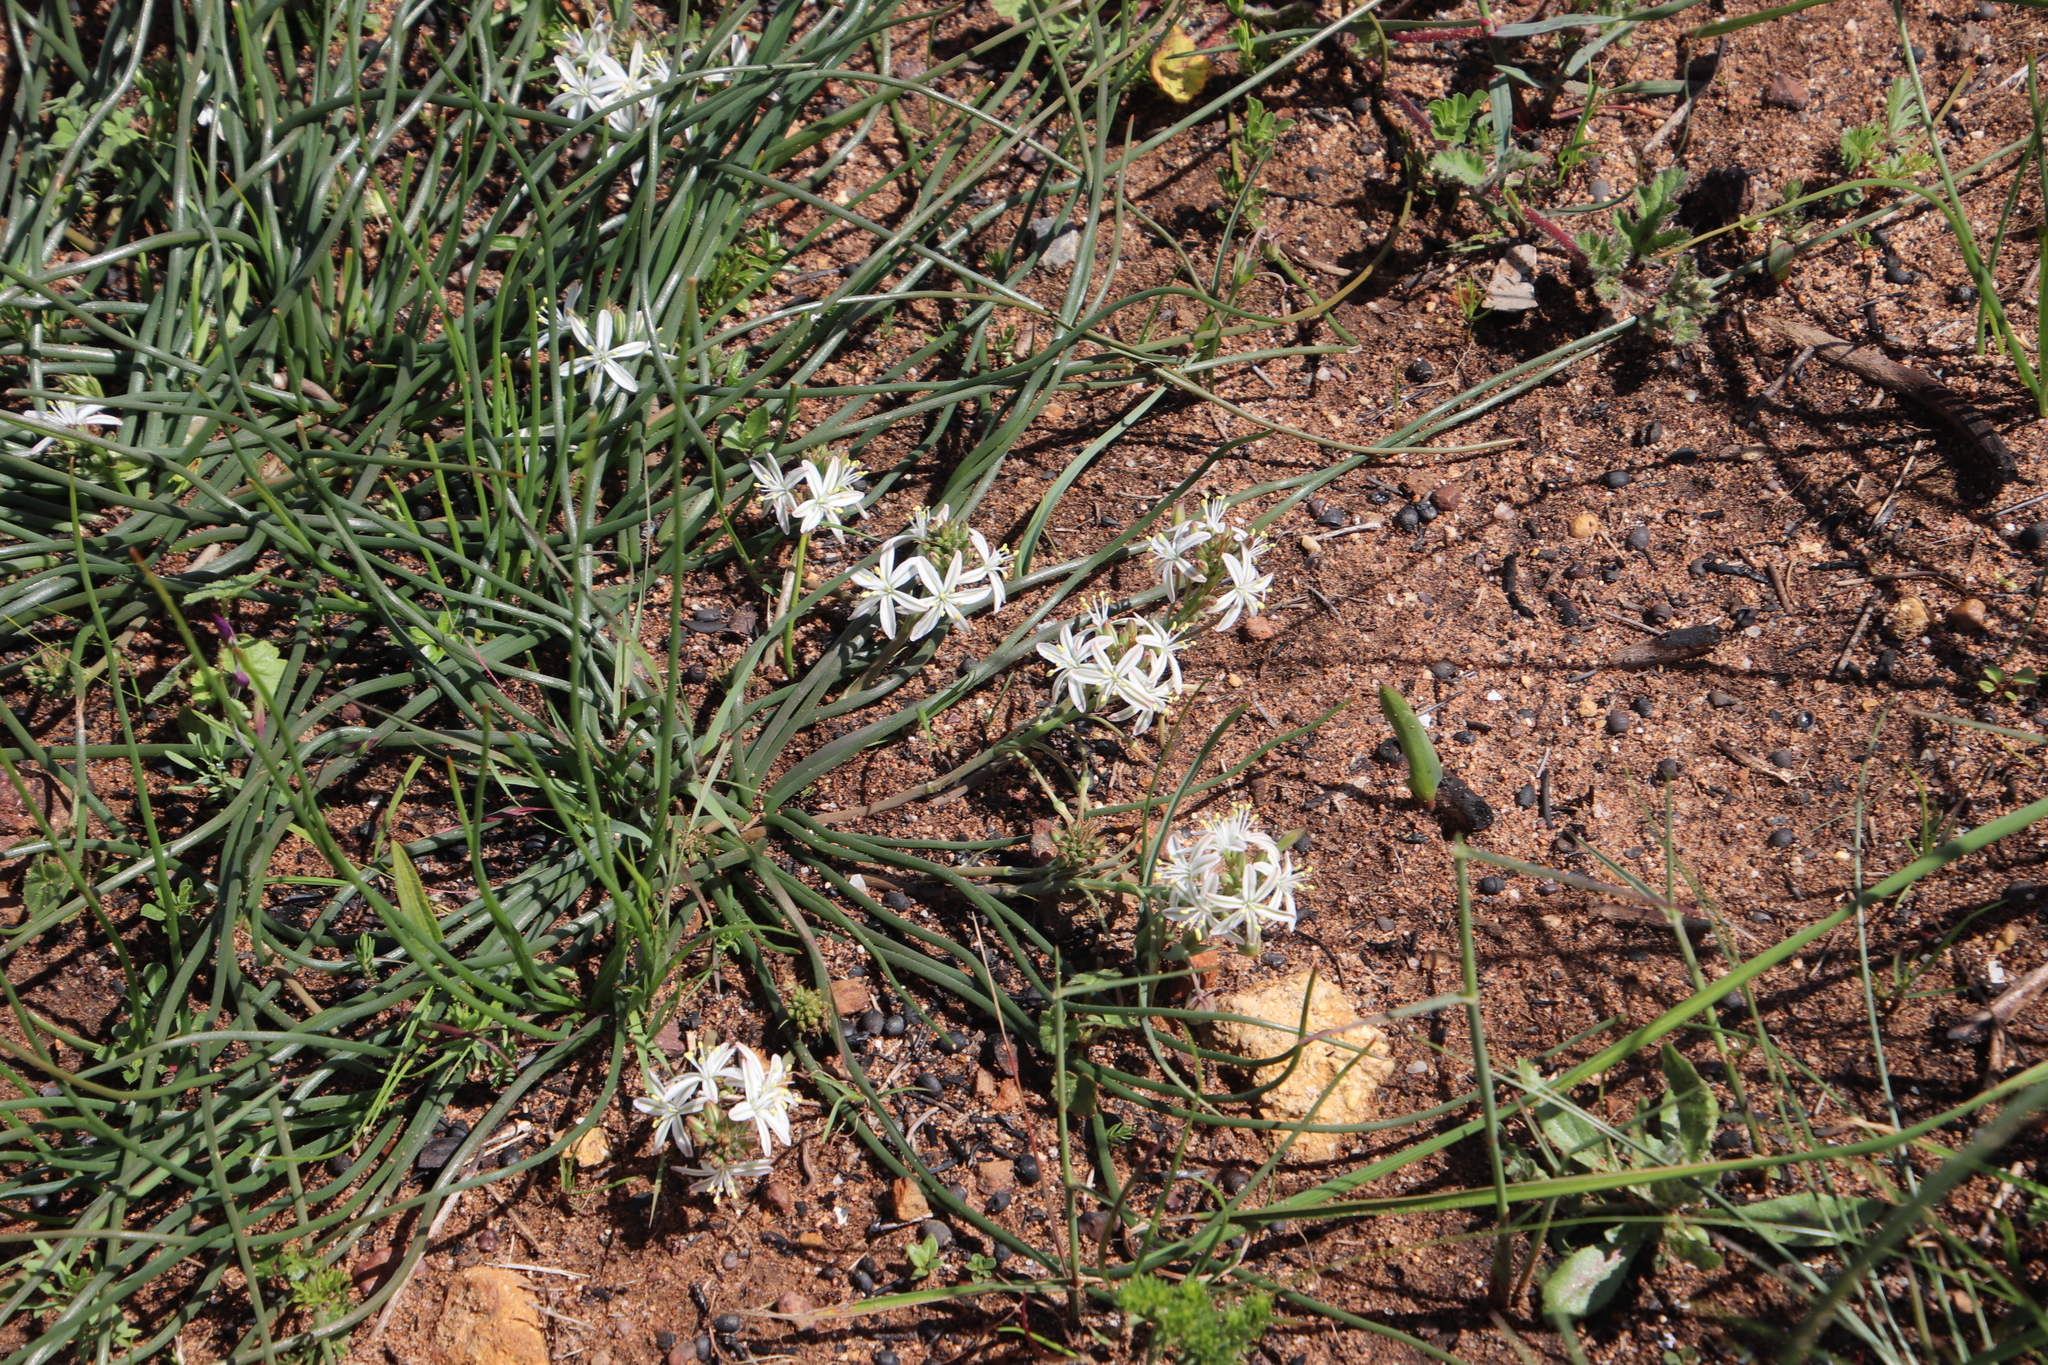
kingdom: Plantae
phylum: Tracheophyta
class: Liliopsida
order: Asparagales
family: Asphodelaceae
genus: Trachyandra
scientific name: Trachyandra chlamydophylla
